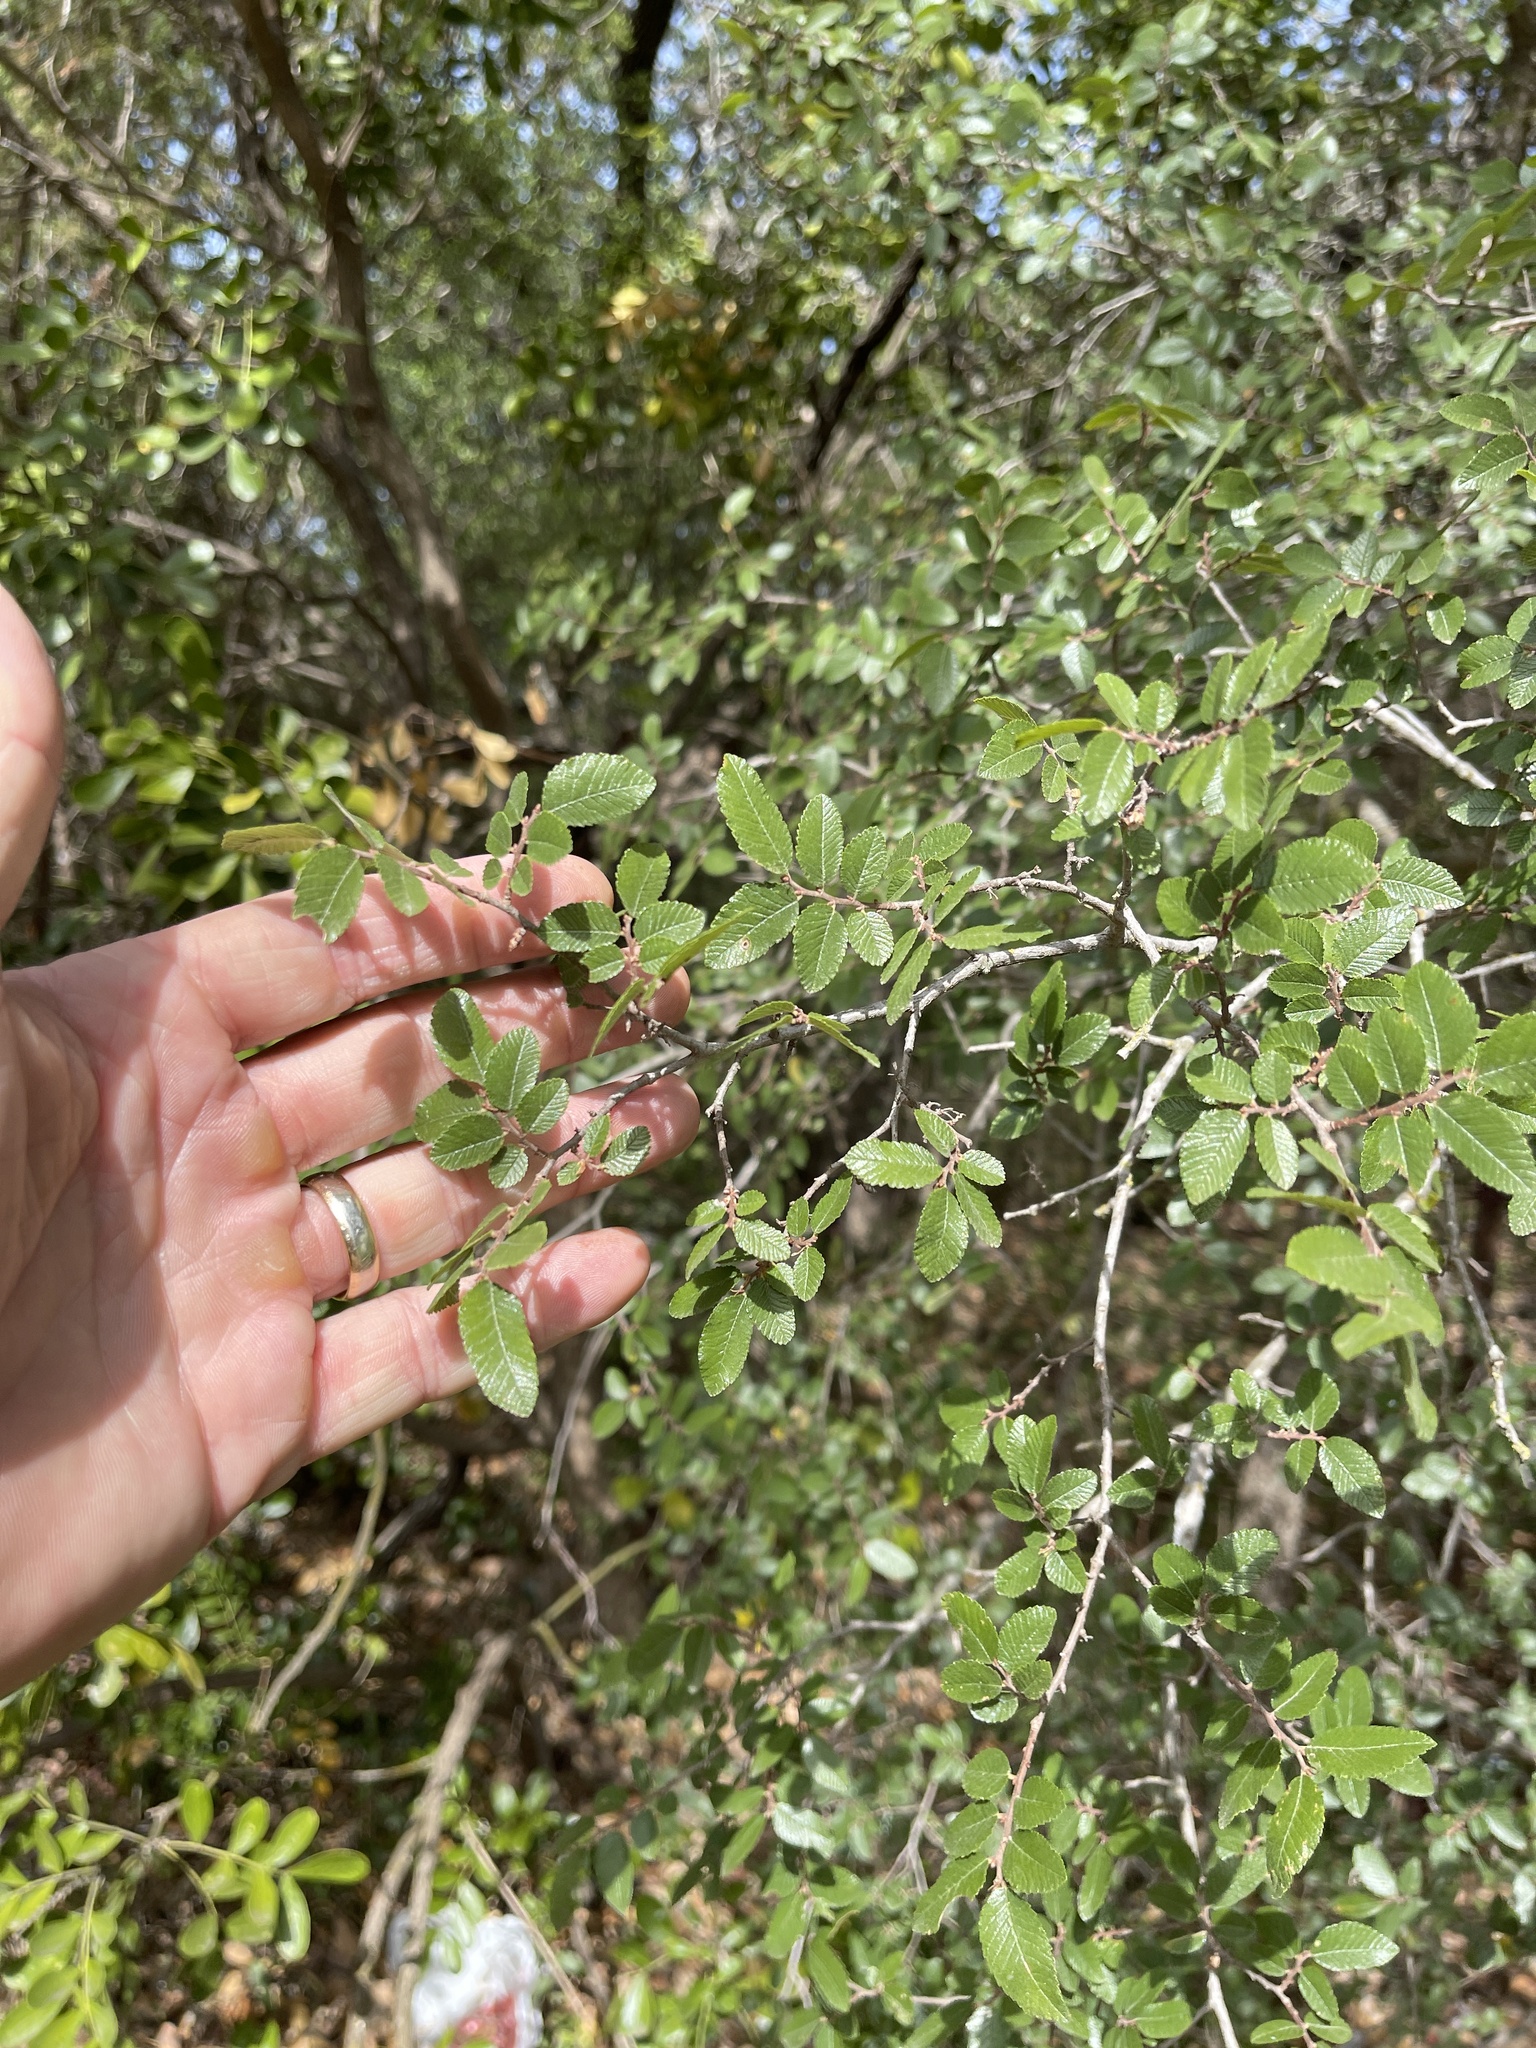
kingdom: Plantae
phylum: Tracheophyta
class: Magnoliopsida
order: Rosales
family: Ulmaceae
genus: Ulmus
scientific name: Ulmus crassifolia
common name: Basket elm
